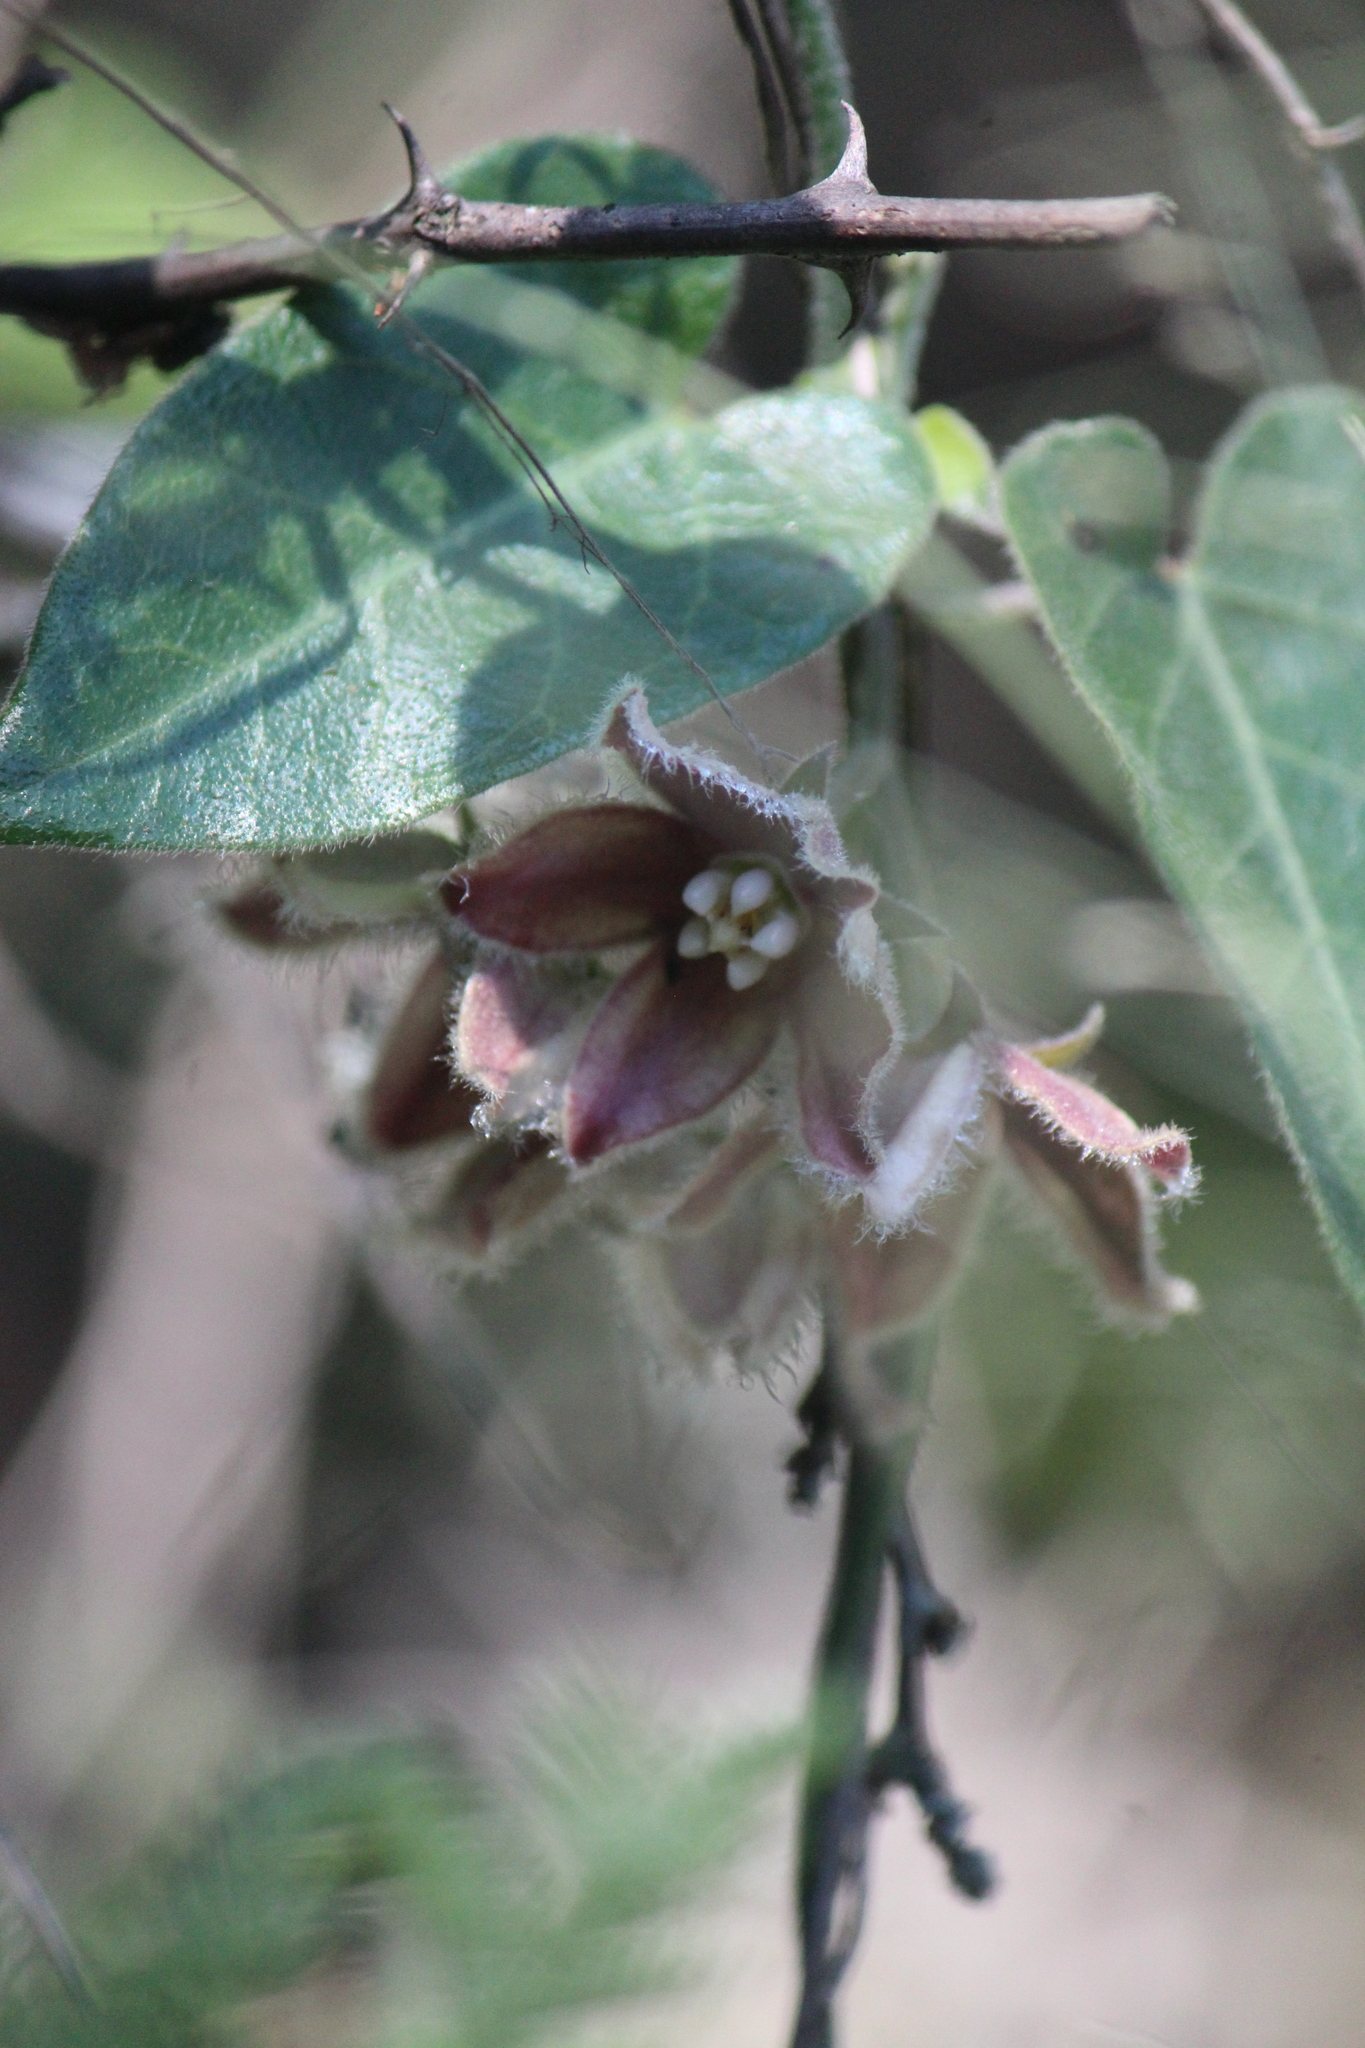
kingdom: Plantae
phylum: Tracheophyta
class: Magnoliopsida
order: Gentianales
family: Apocynaceae
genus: Funastrum
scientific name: Funastrum elegans
